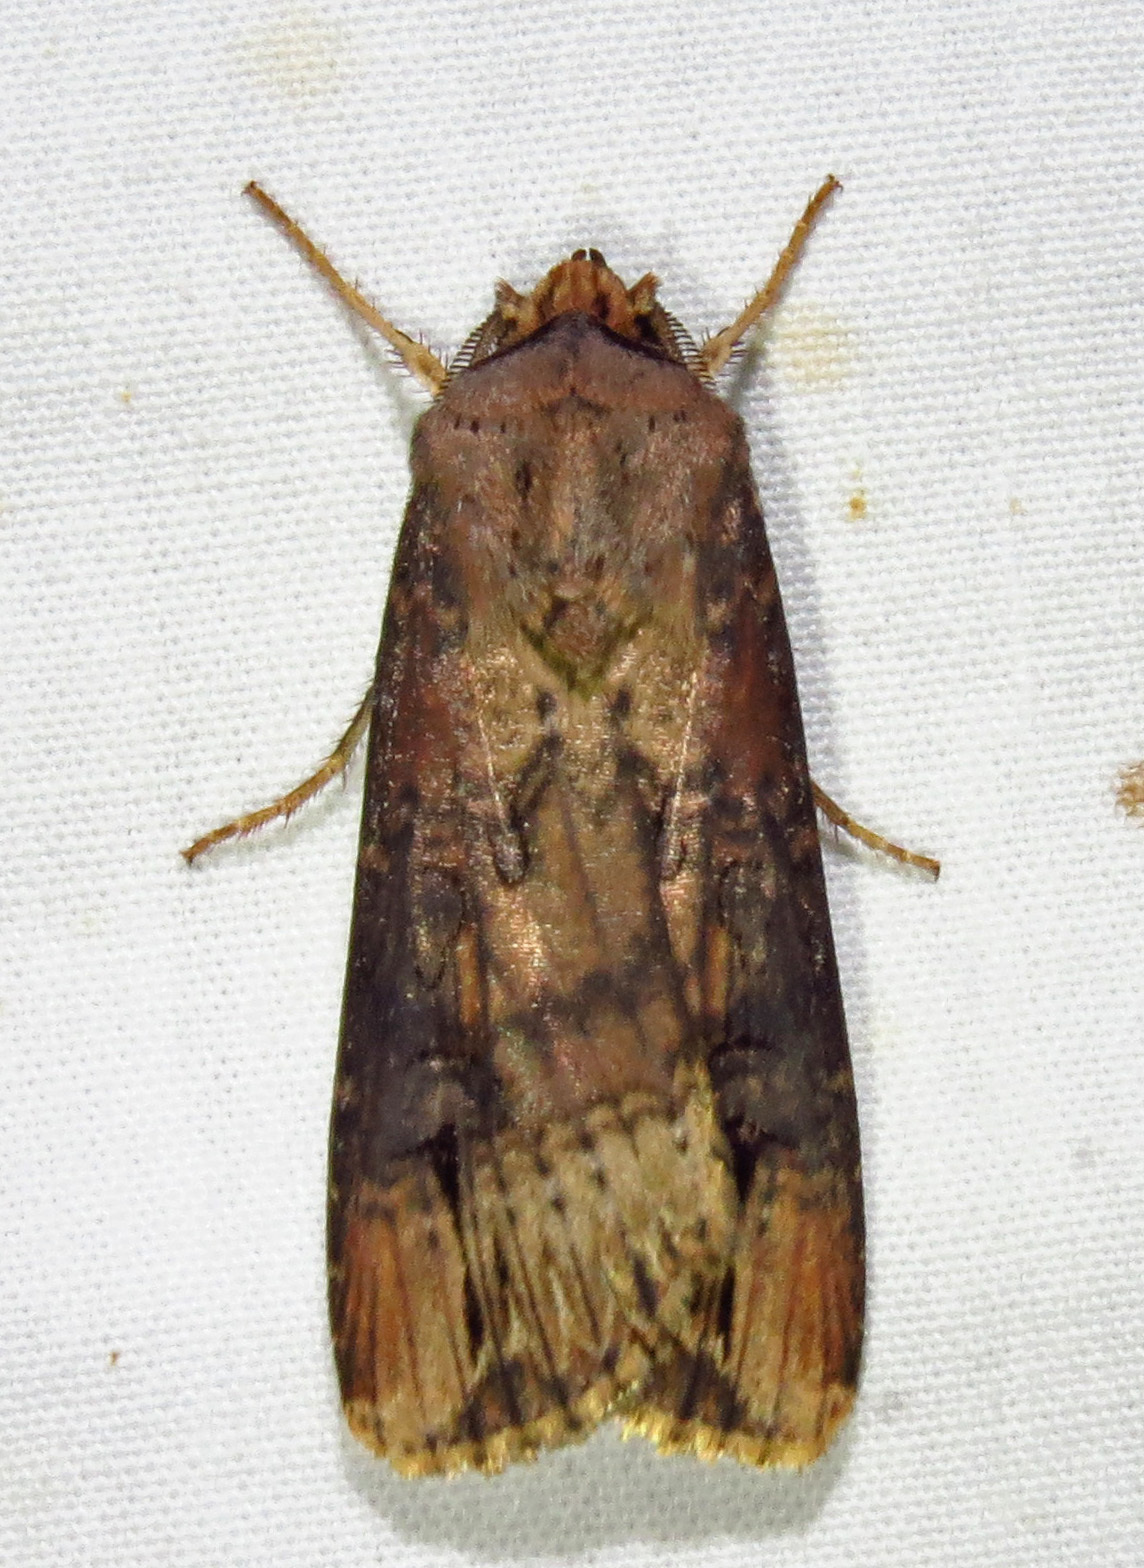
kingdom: Animalia
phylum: Arthropoda
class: Insecta
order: Lepidoptera
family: Noctuidae
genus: Agrotis
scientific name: Agrotis ipsilon
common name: Dark sword-grass
